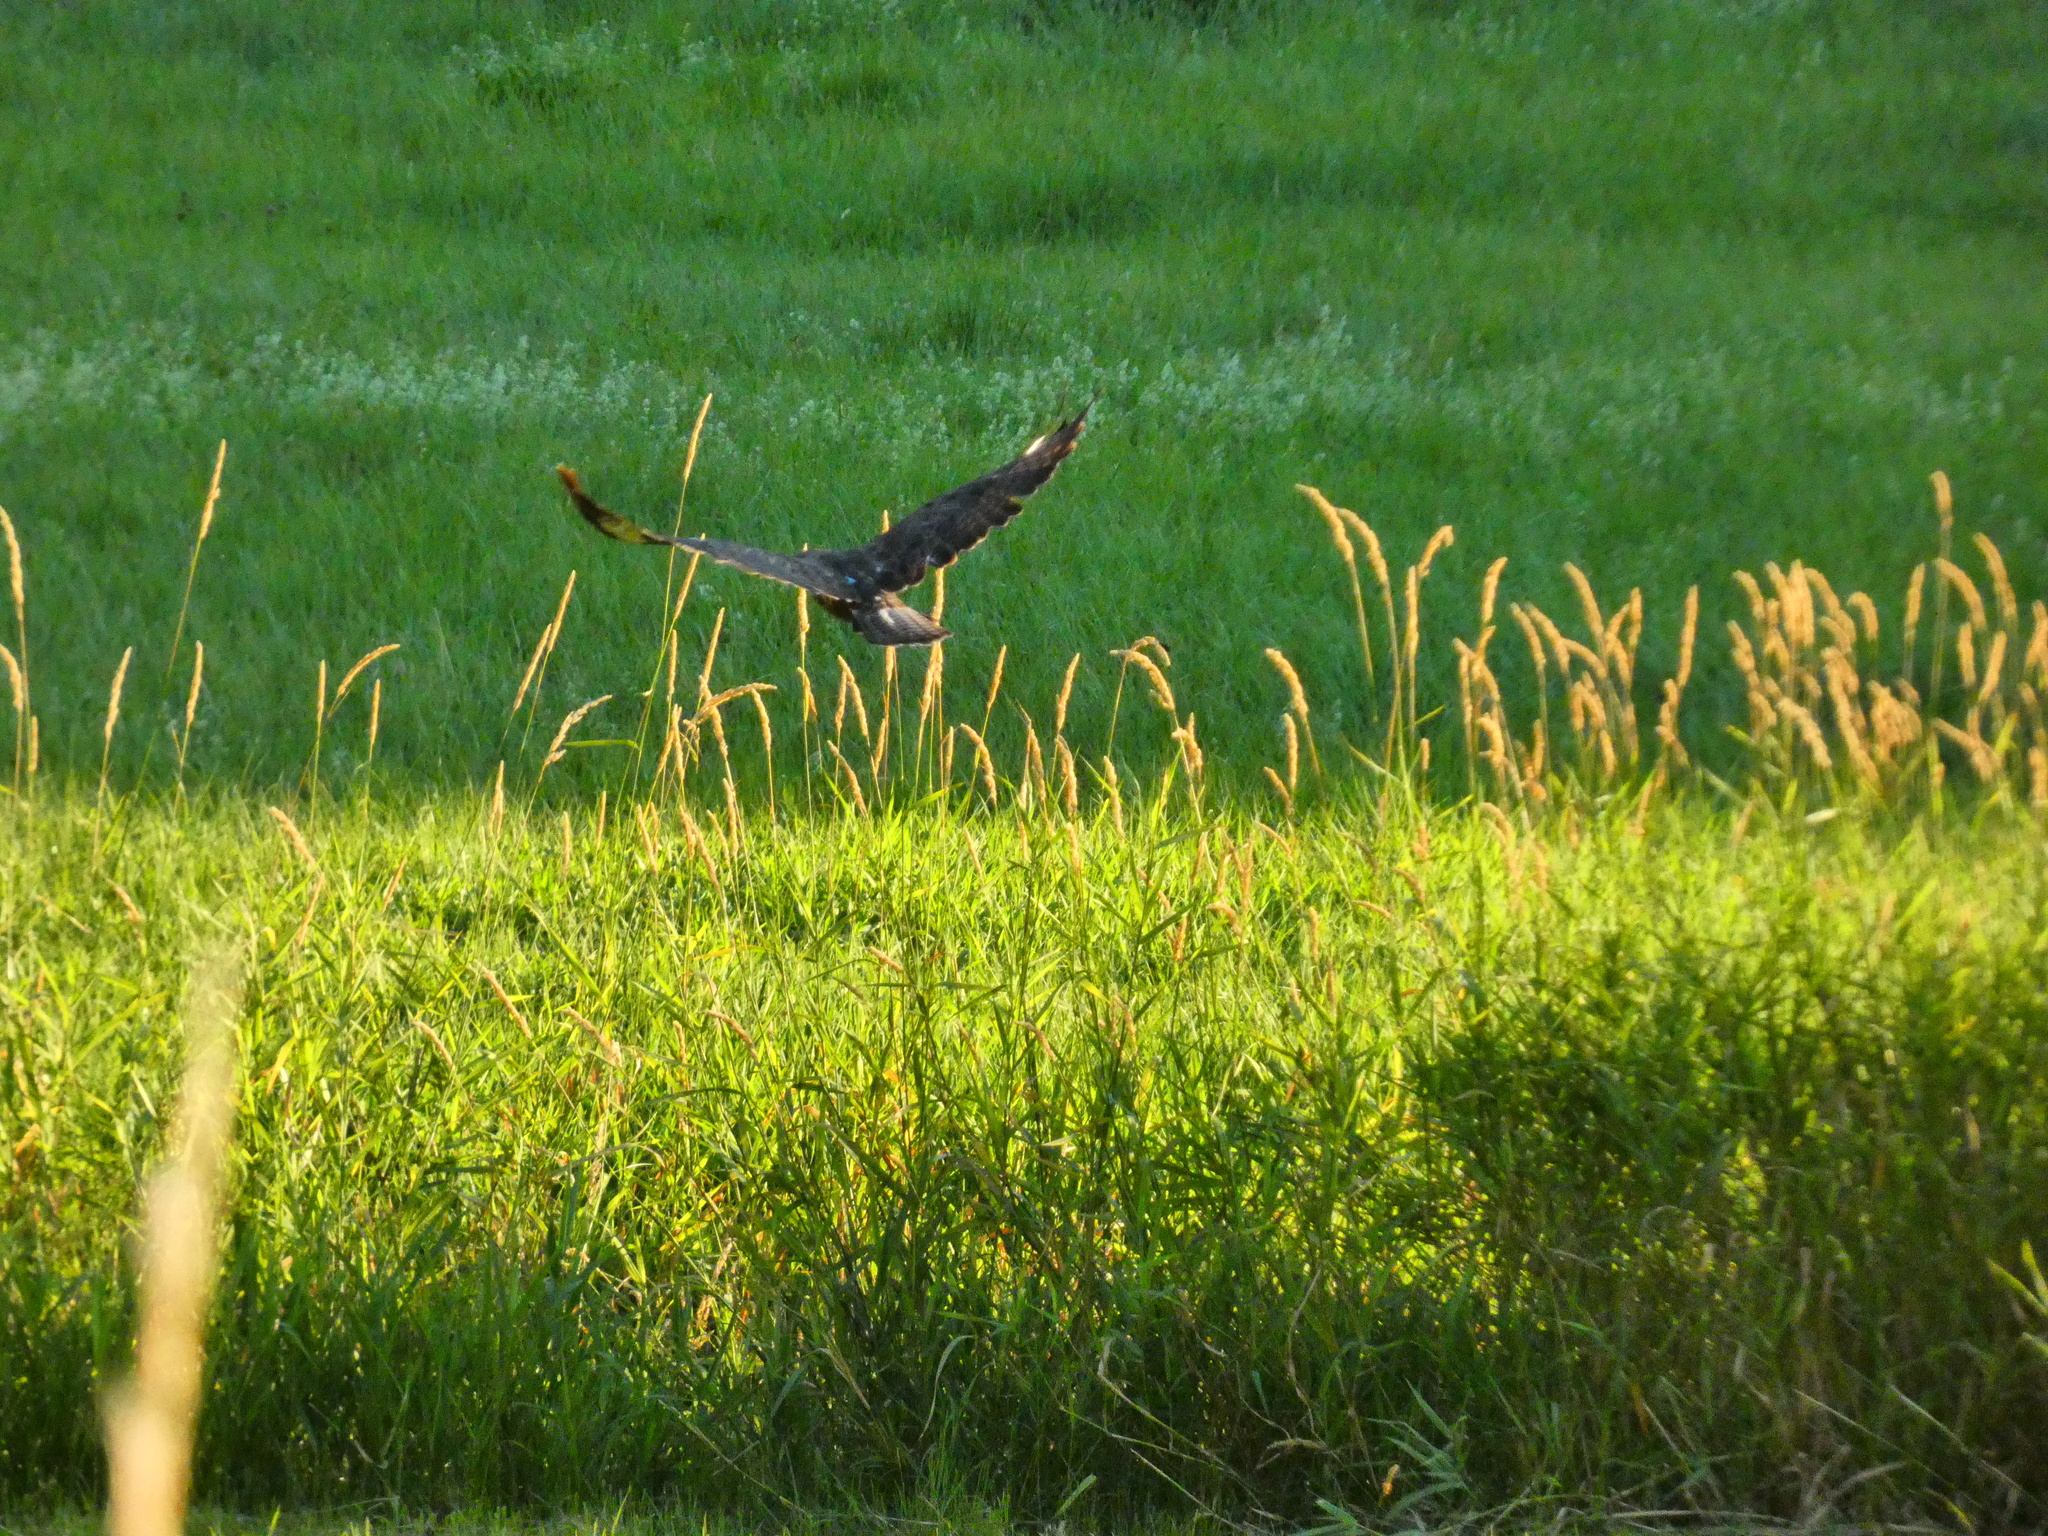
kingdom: Animalia
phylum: Chordata
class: Aves
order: Accipitriformes
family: Accipitridae
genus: Buteo
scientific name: Buteo buteo
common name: Common buzzard
